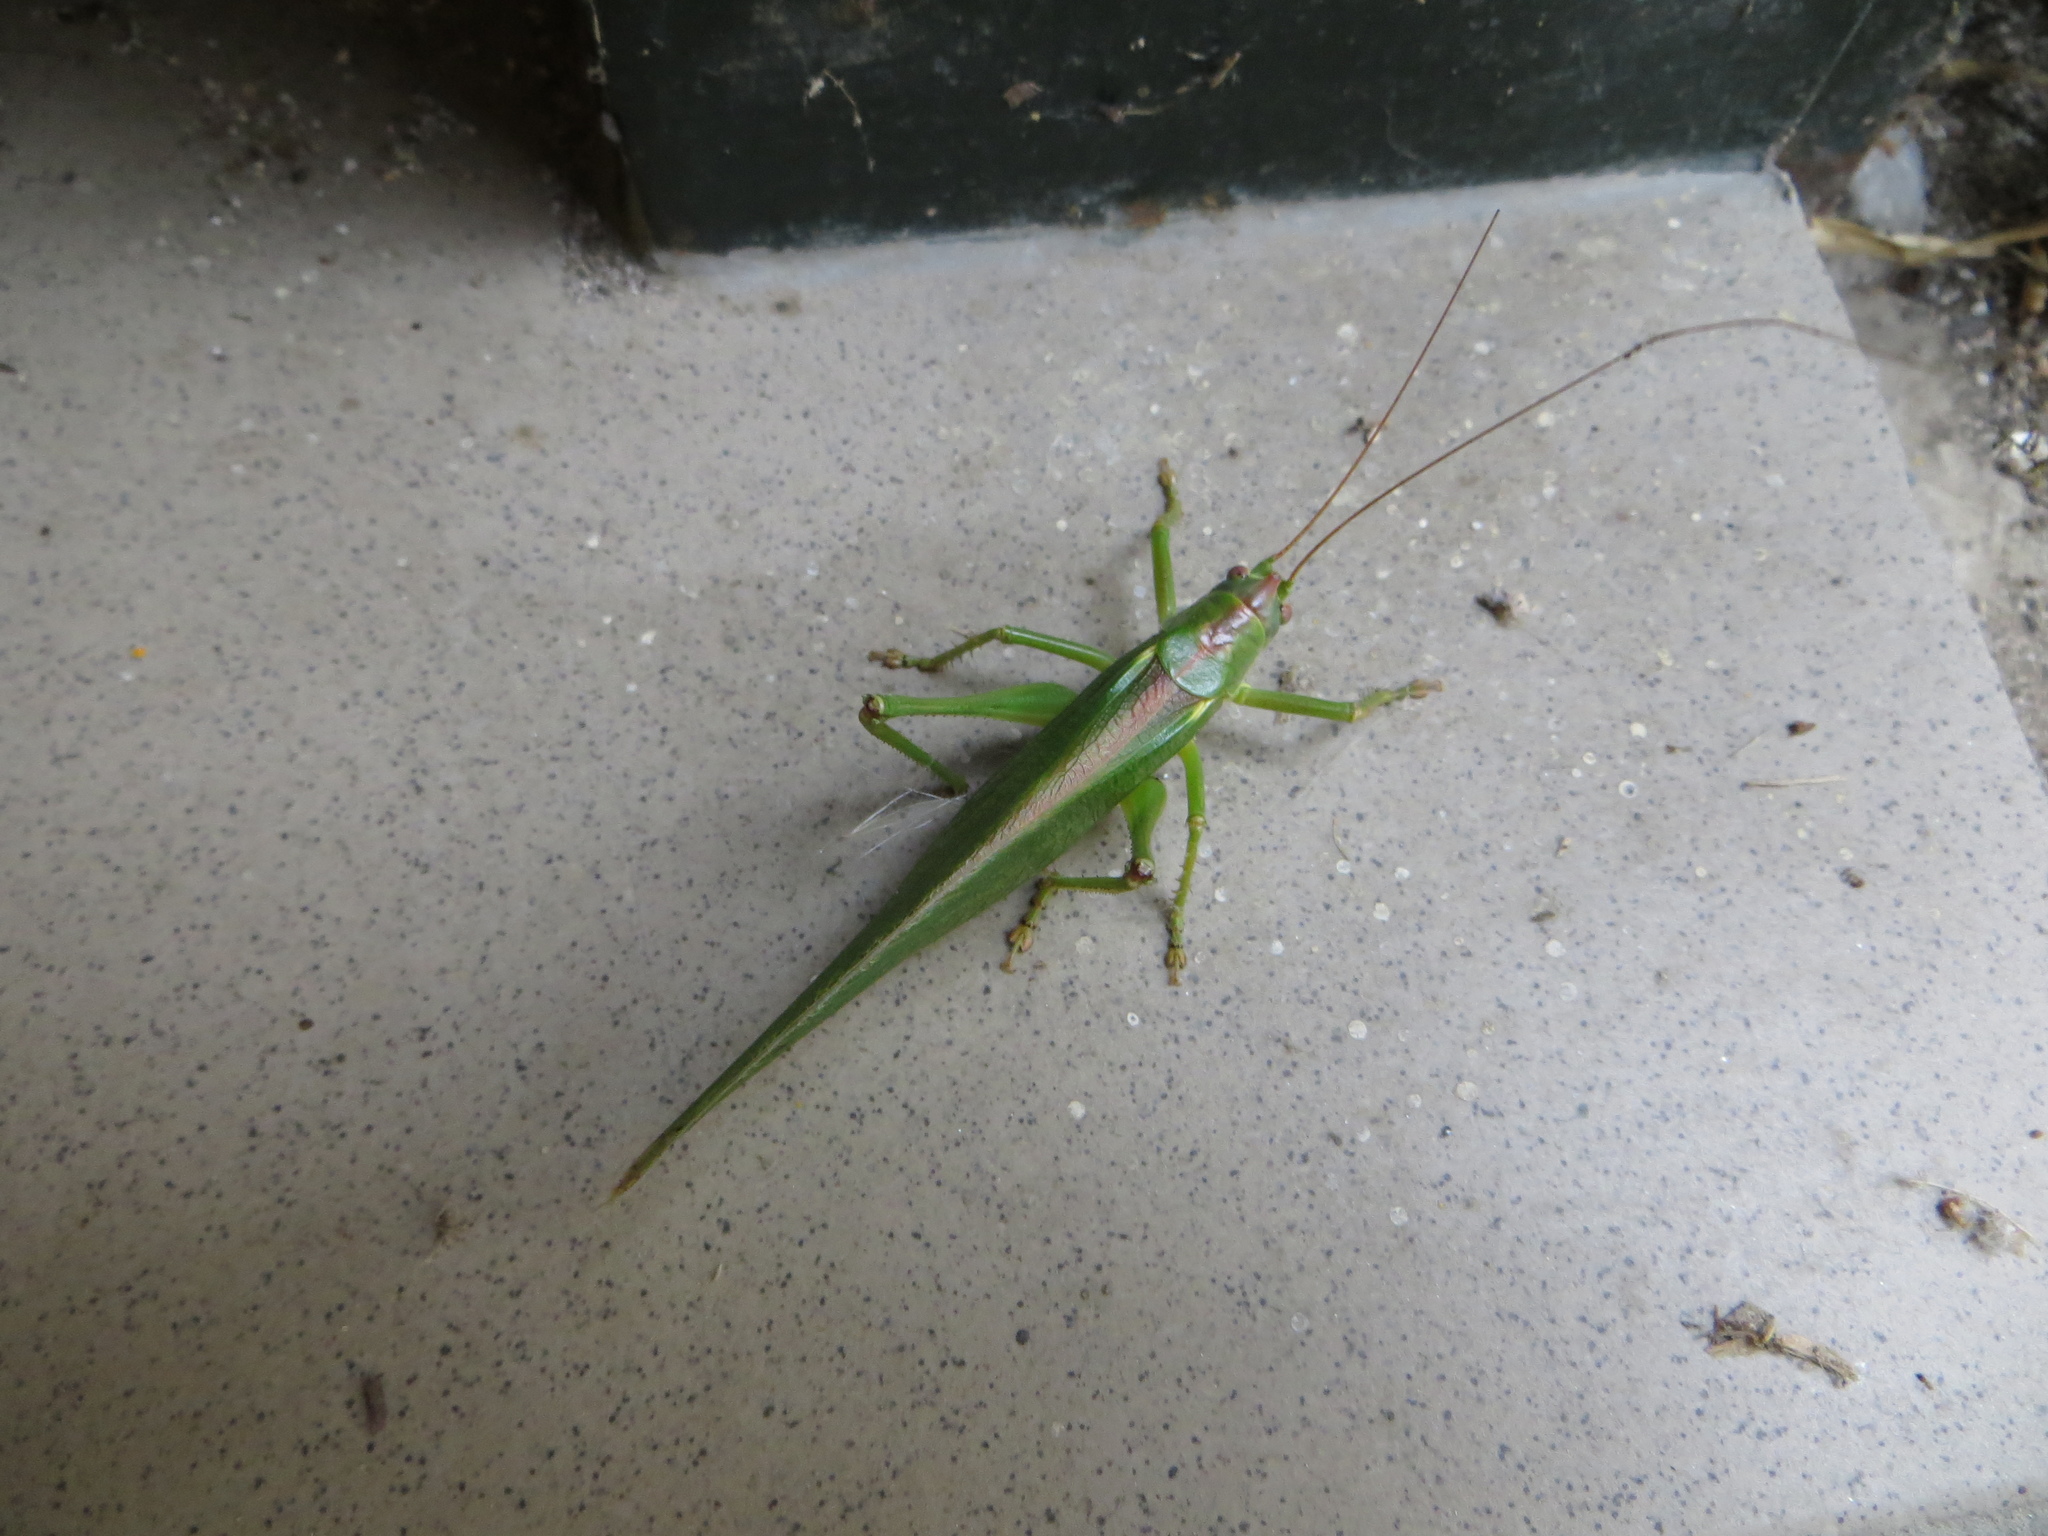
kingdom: Animalia
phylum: Arthropoda
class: Insecta
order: Orthoptera
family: Tettigoniidae
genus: Tettigonia
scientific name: Tettigonia viridissima
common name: Great green bush-cricket
